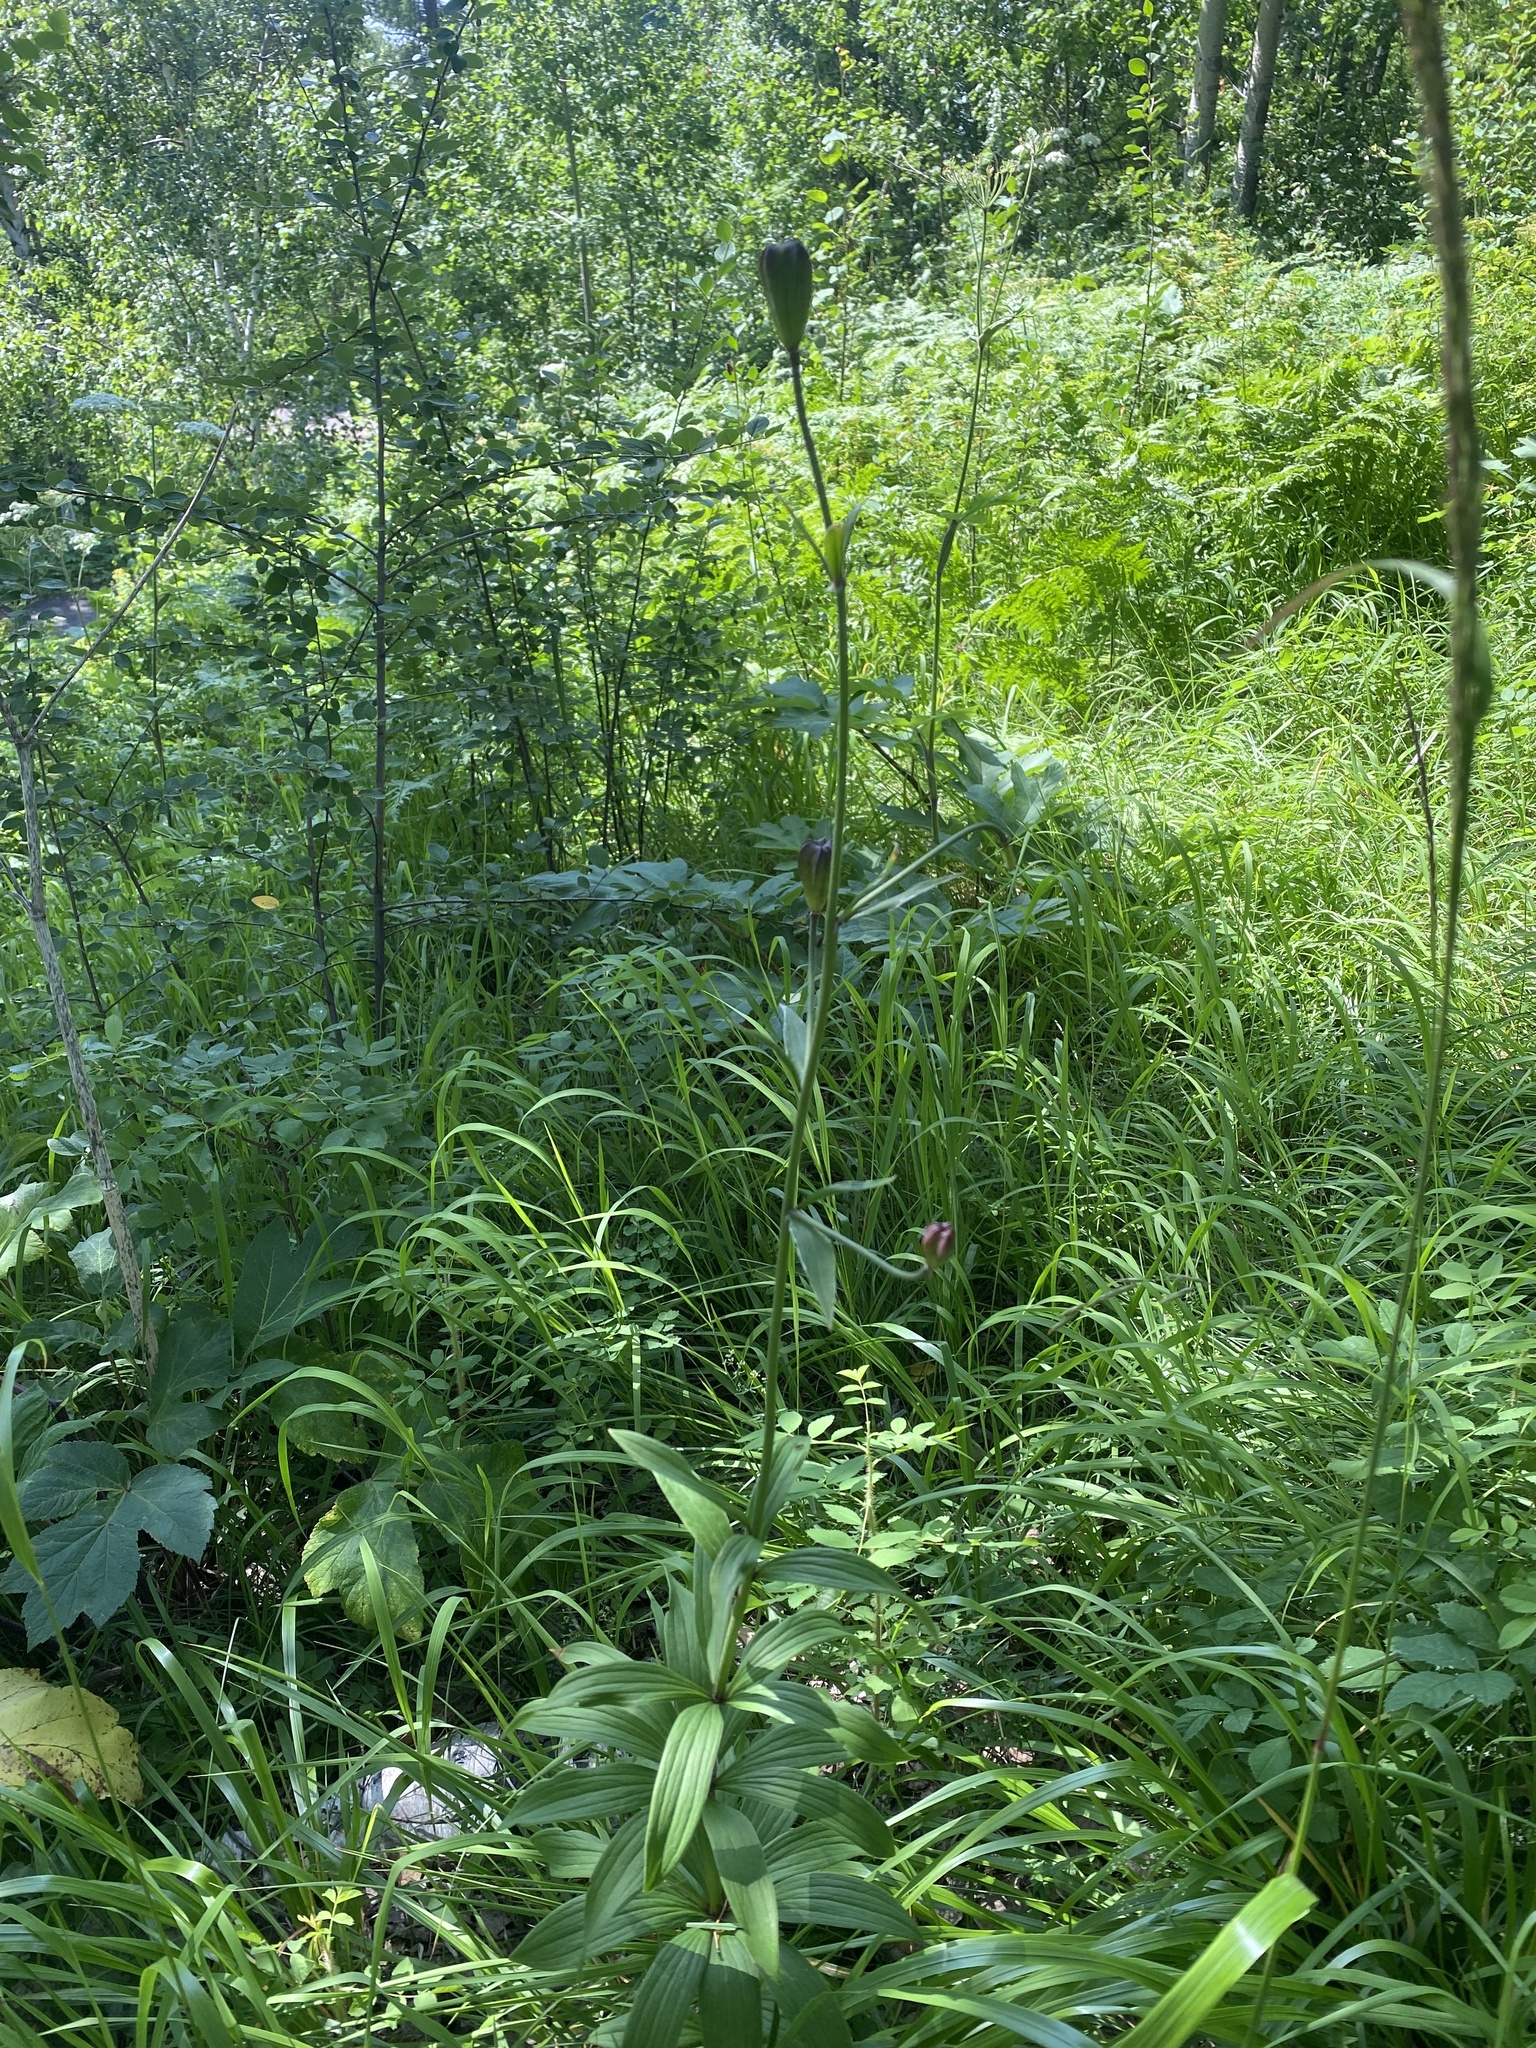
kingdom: Plantae
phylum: Tracheophyta
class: Liliopsida
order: Liliales
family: Liliaceae
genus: Lilium
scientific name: Lilium martagon
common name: Martagon lily
